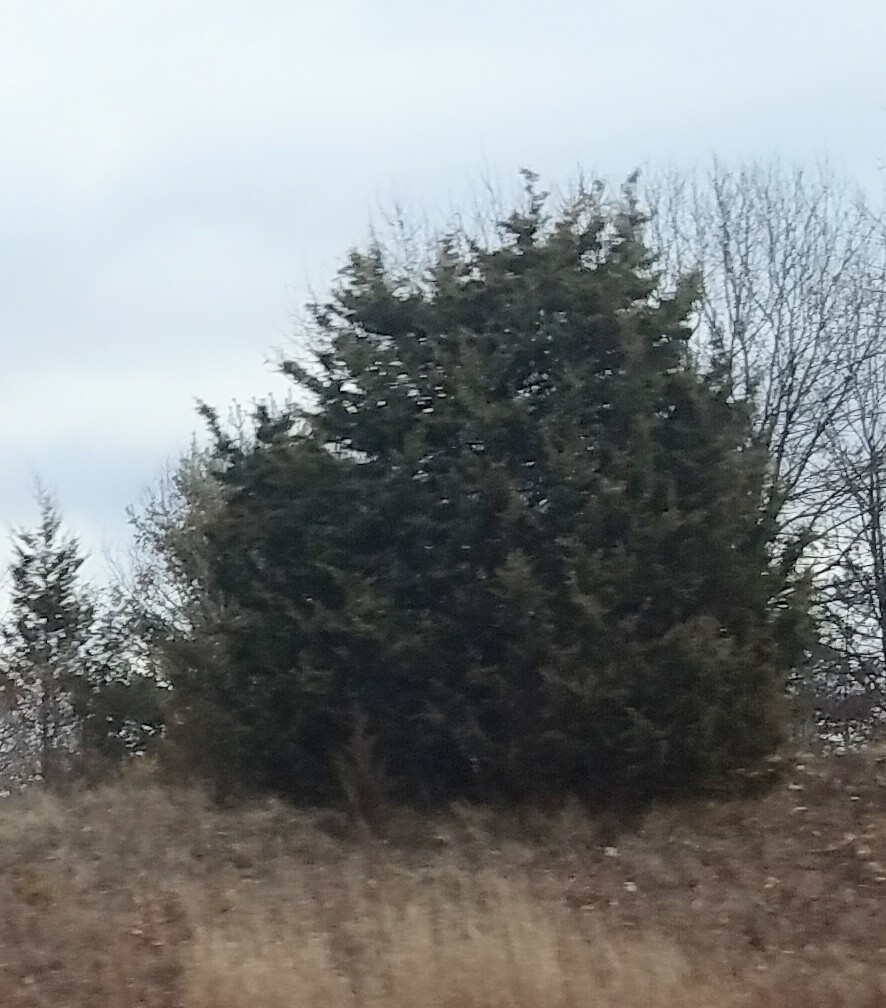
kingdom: Plantae
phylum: Tracheophyta
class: Pinopsida
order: Pinales
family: Cupressaceae
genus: Juniperus
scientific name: Juniperus virginiana
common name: Red juniper
